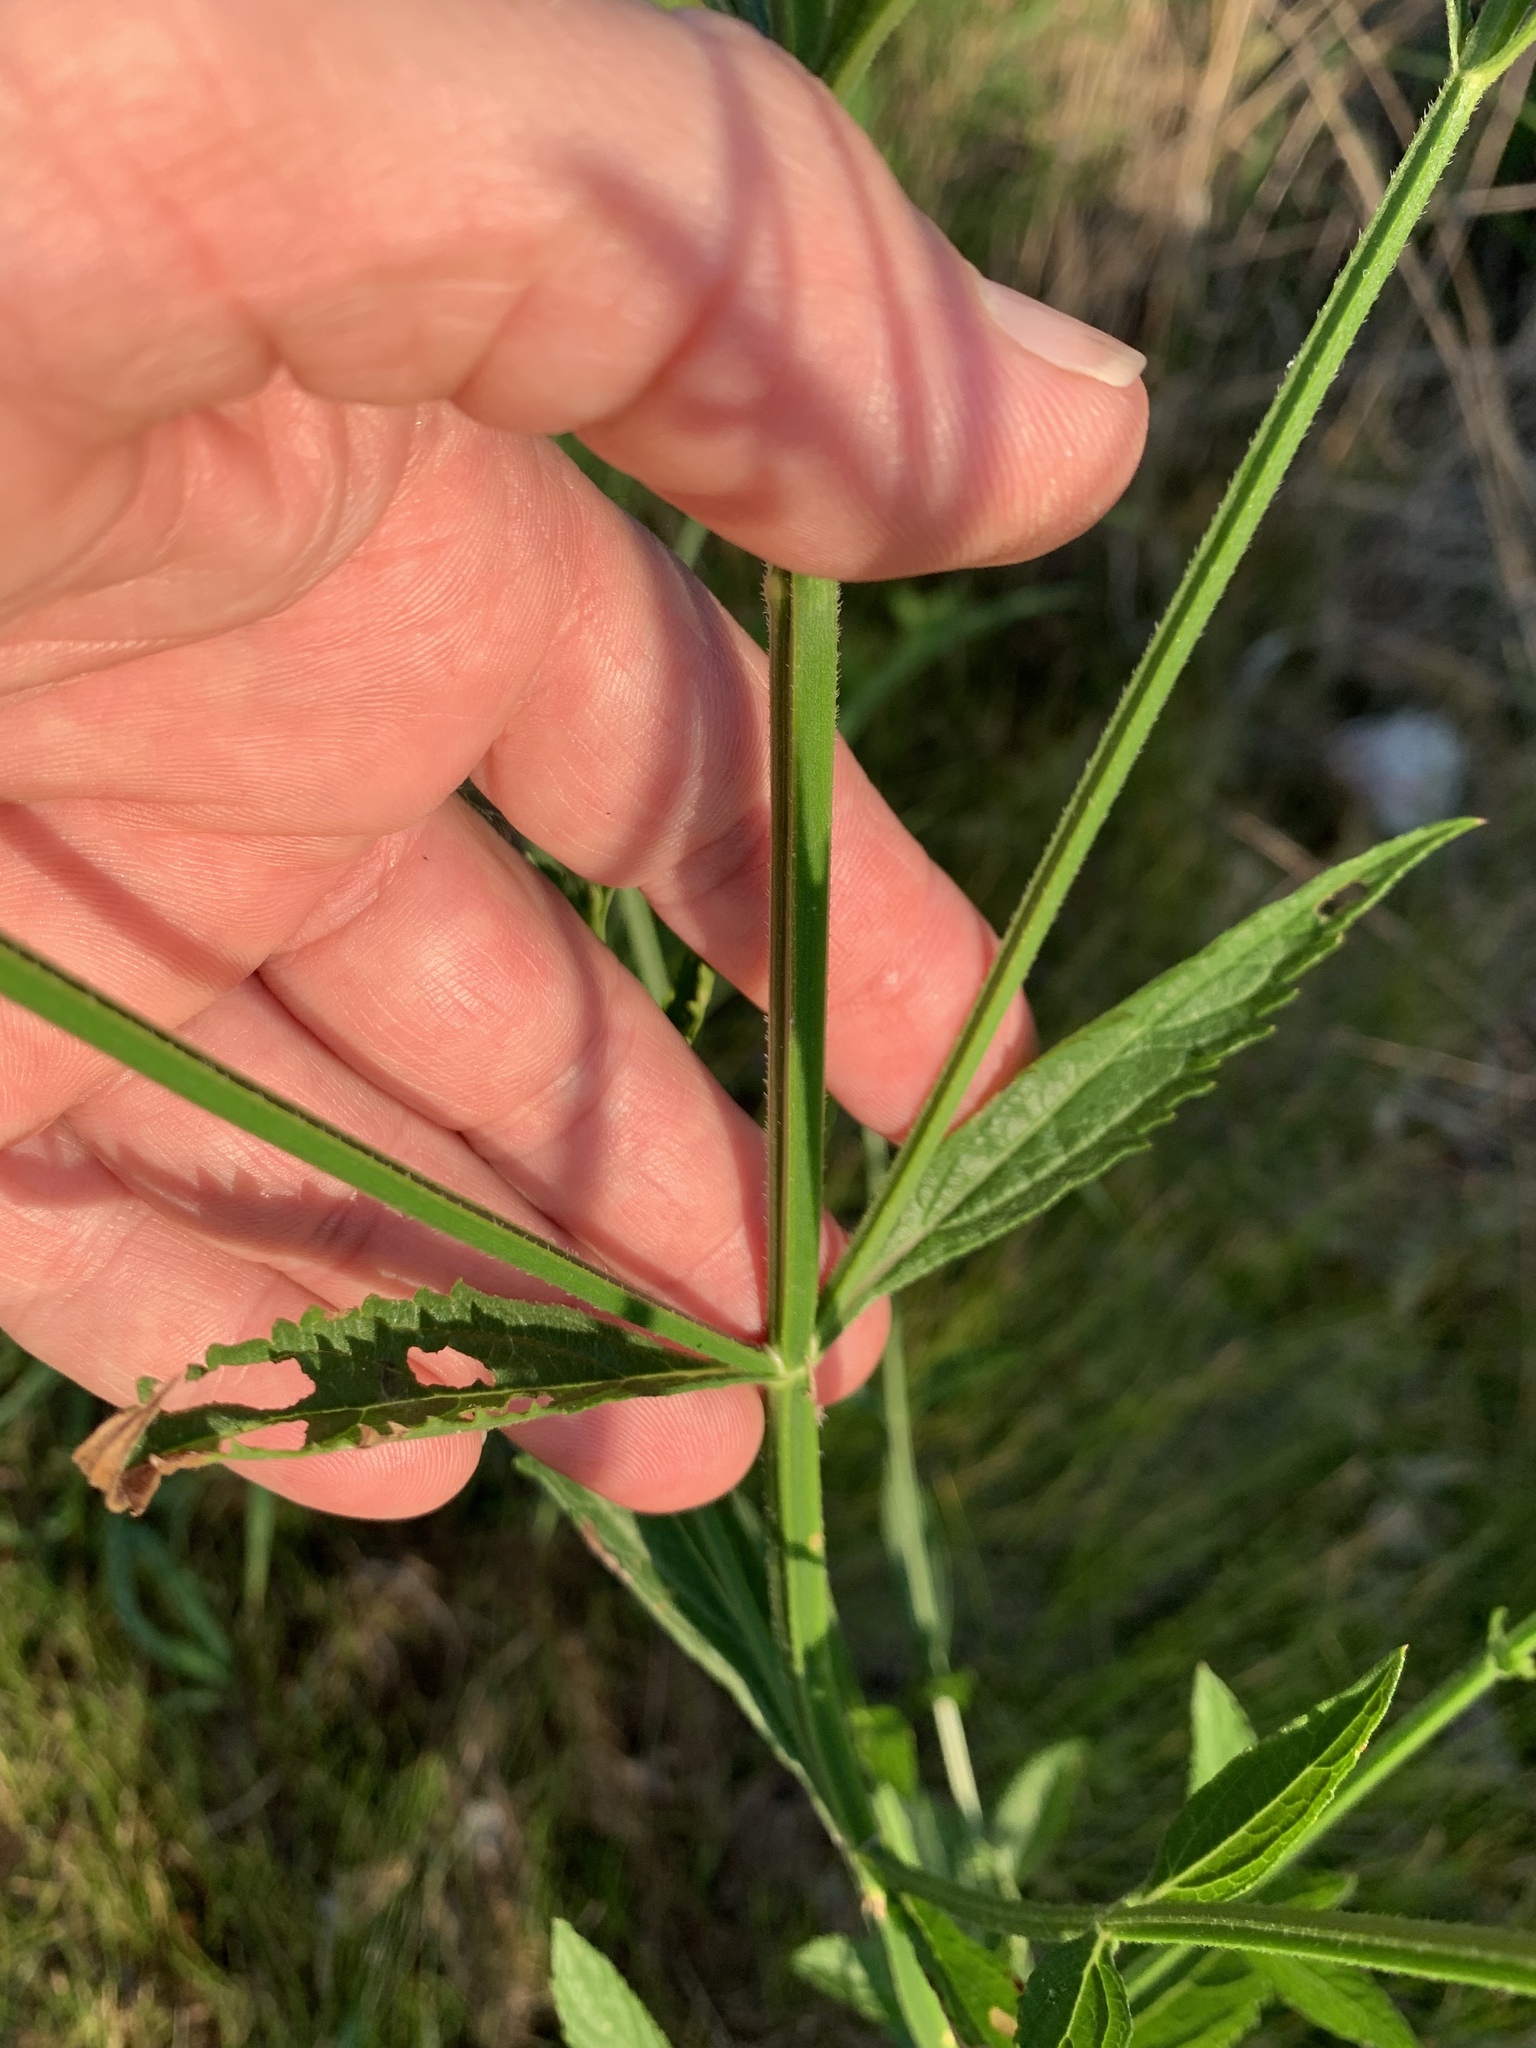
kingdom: Plantae
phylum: Tracheophyta
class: Magnoliopsida
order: Lamiales
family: Verbenaceae
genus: Verbena
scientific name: Verbena brasiliensis
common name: Brazilian vervain
